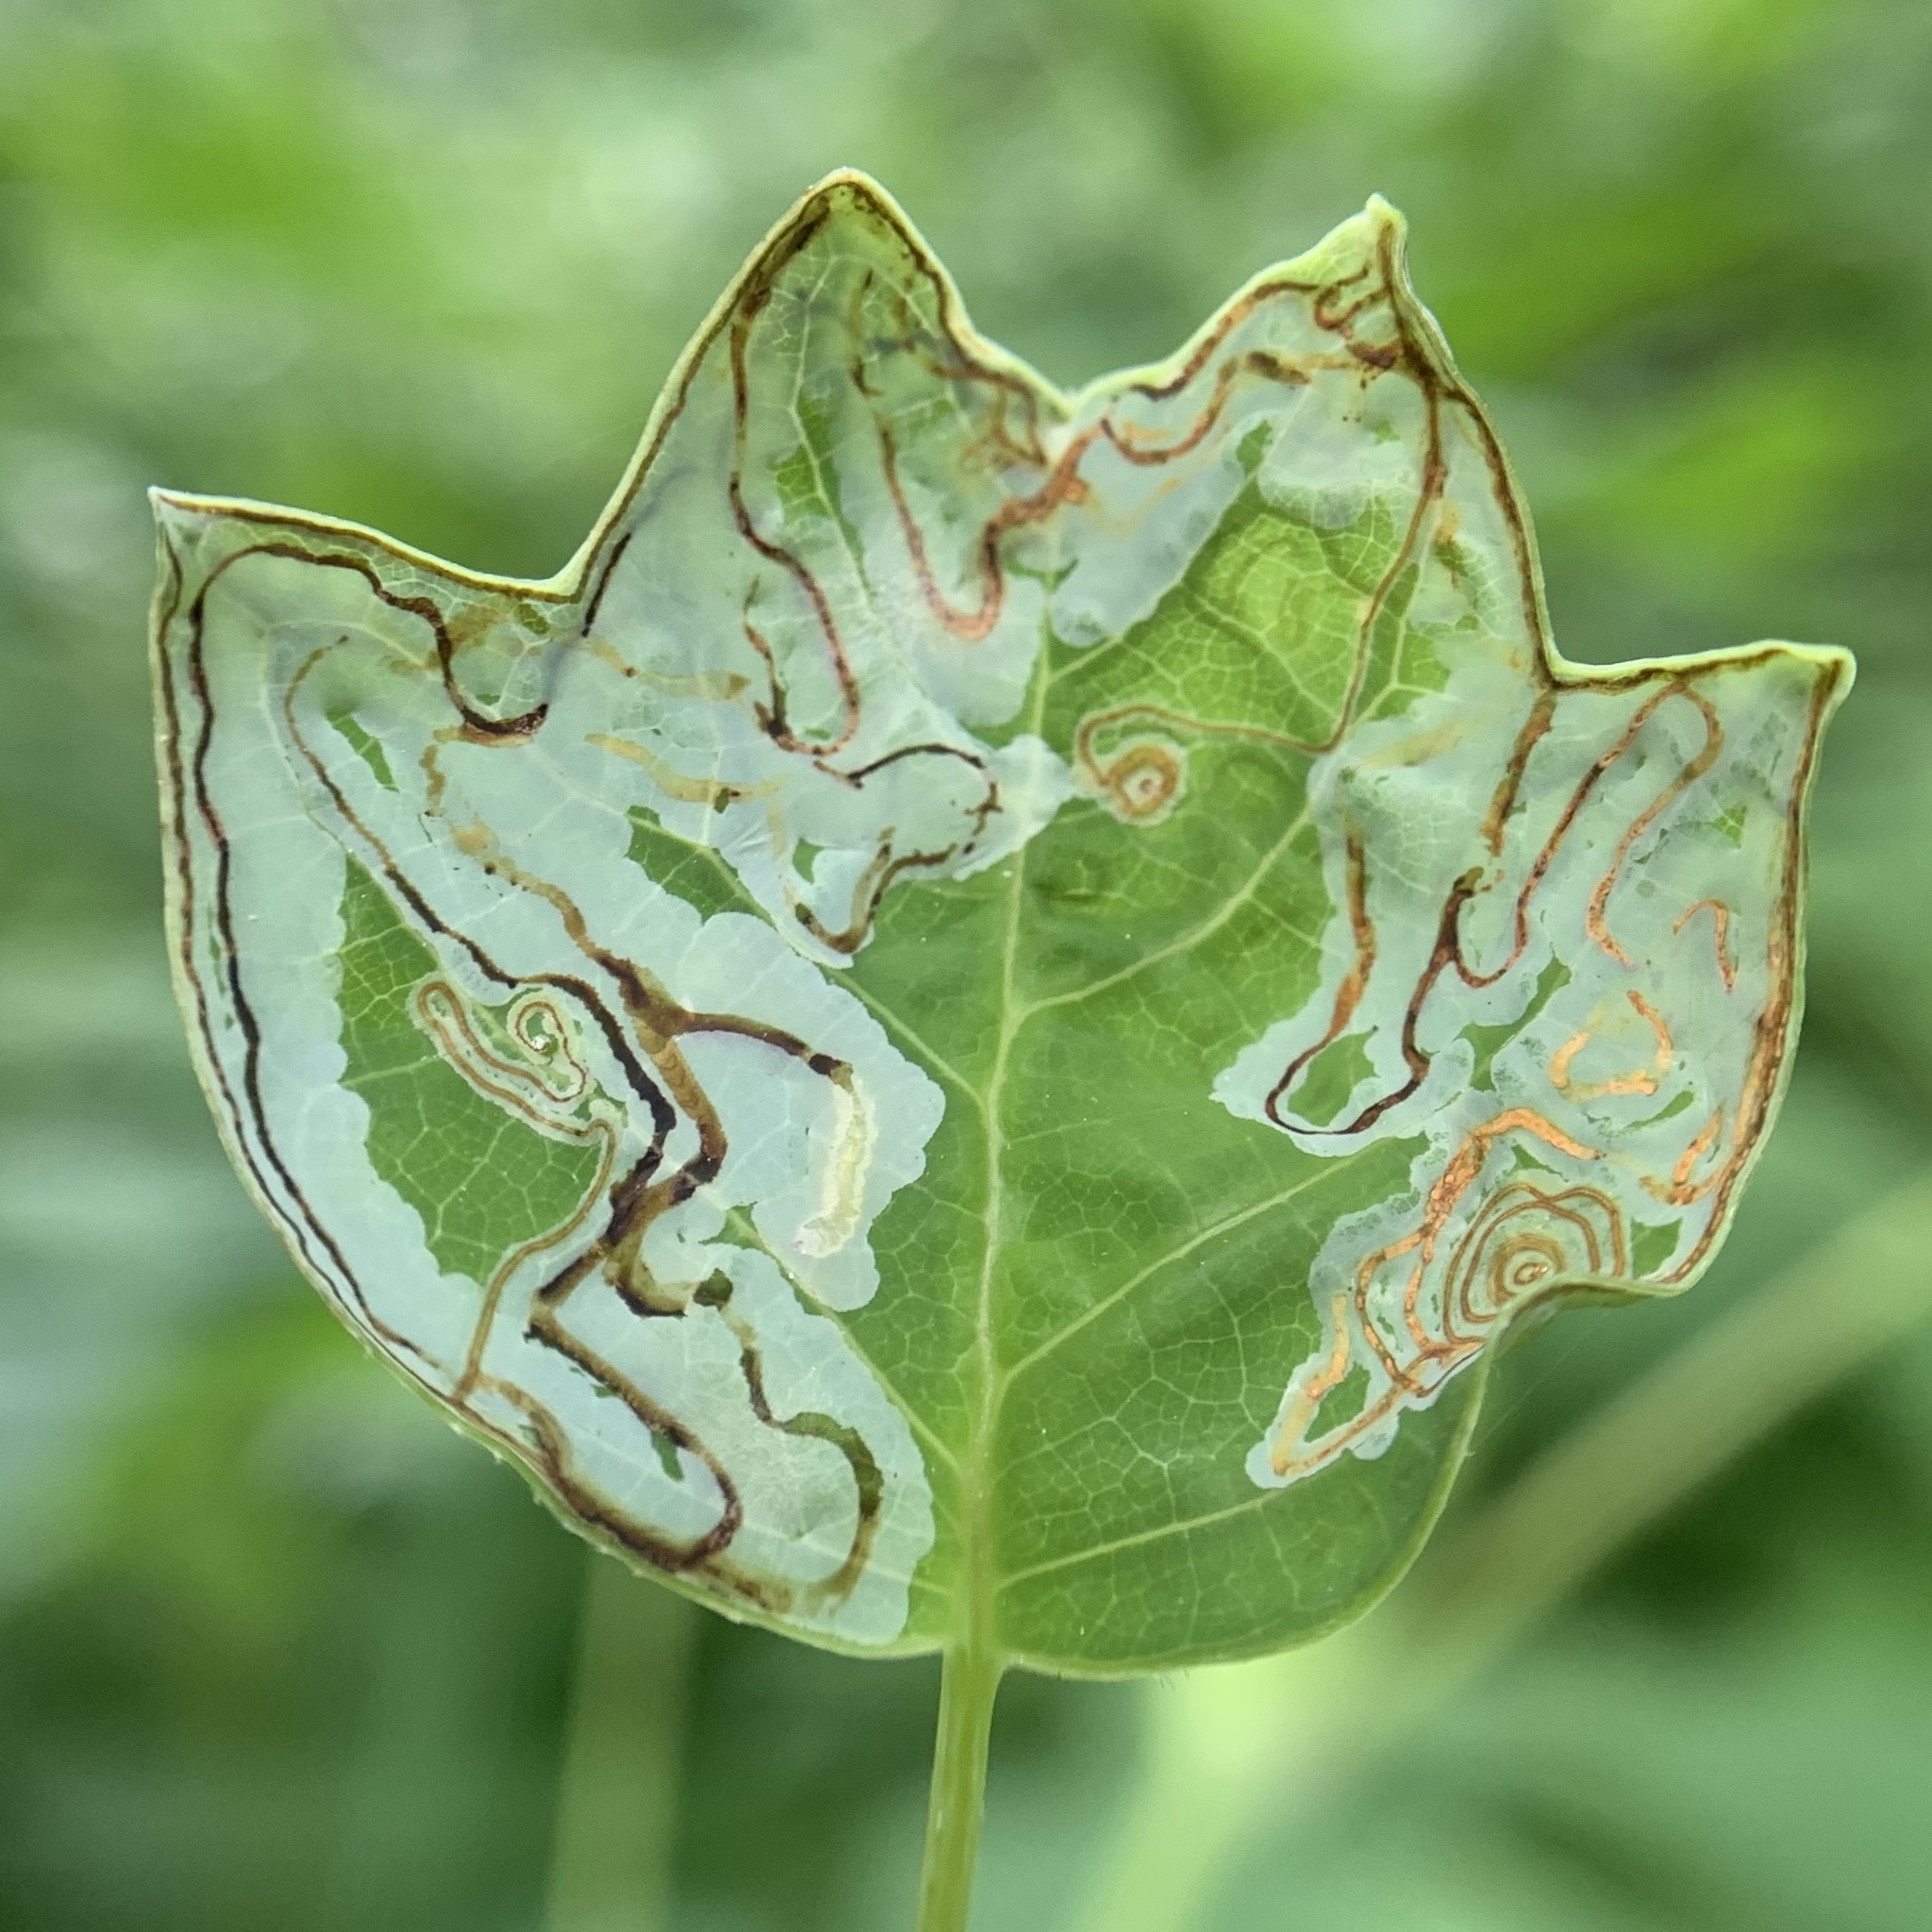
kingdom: Animalia
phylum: Arthropoda
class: Insecta
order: Lepidoptera
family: Gracillariidae
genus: Phyllocnistis
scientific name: Phyllocnistis liriodendronella
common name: Tulip tree leaf miner
